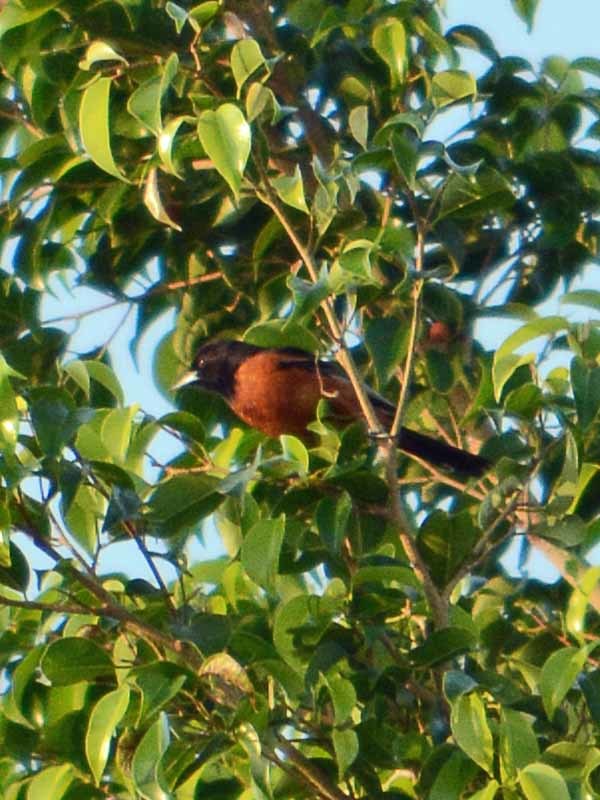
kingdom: Animalia
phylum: Chordata
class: Aves
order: Passeriformes
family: Icteridae
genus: Icterus
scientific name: Icterus spurius
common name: Orchard oriole
